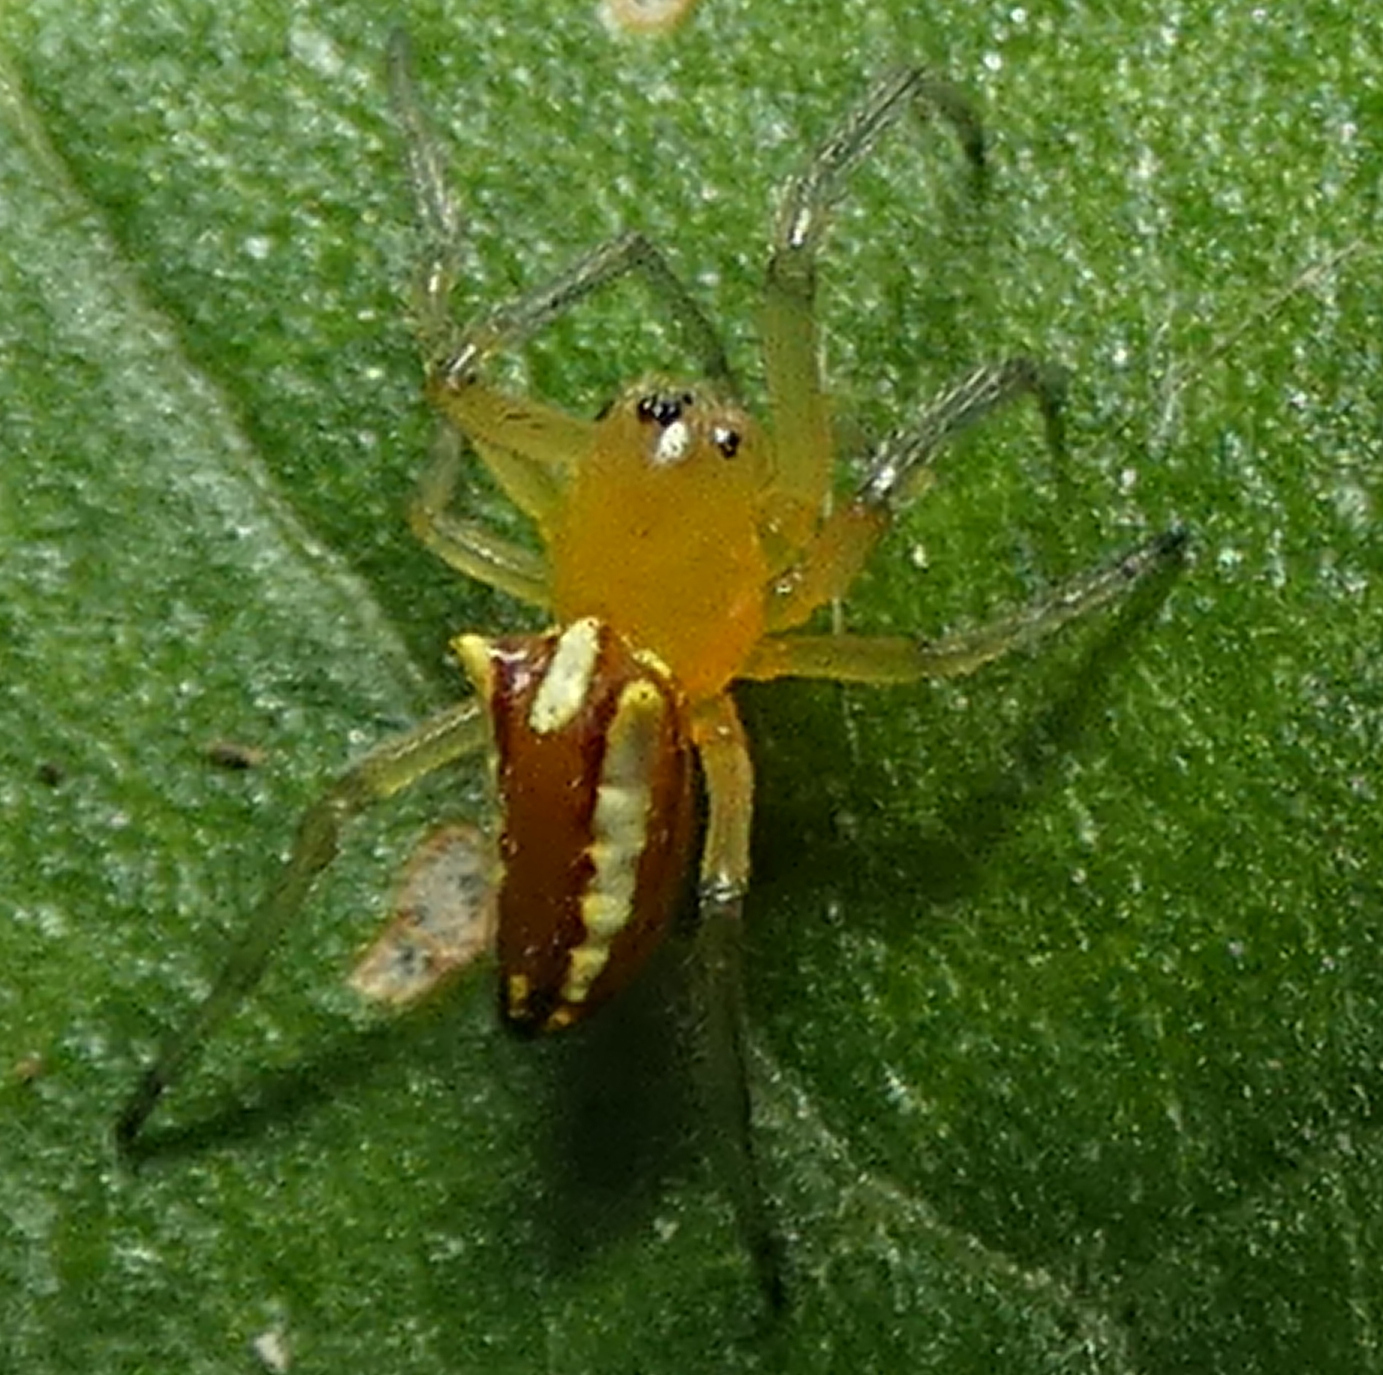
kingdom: Animalia
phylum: Arthropoda
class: Arachnida
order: Araneae
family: Araneidae
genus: Alpaida
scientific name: Alpaida bicornuta
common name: Orb weavers
